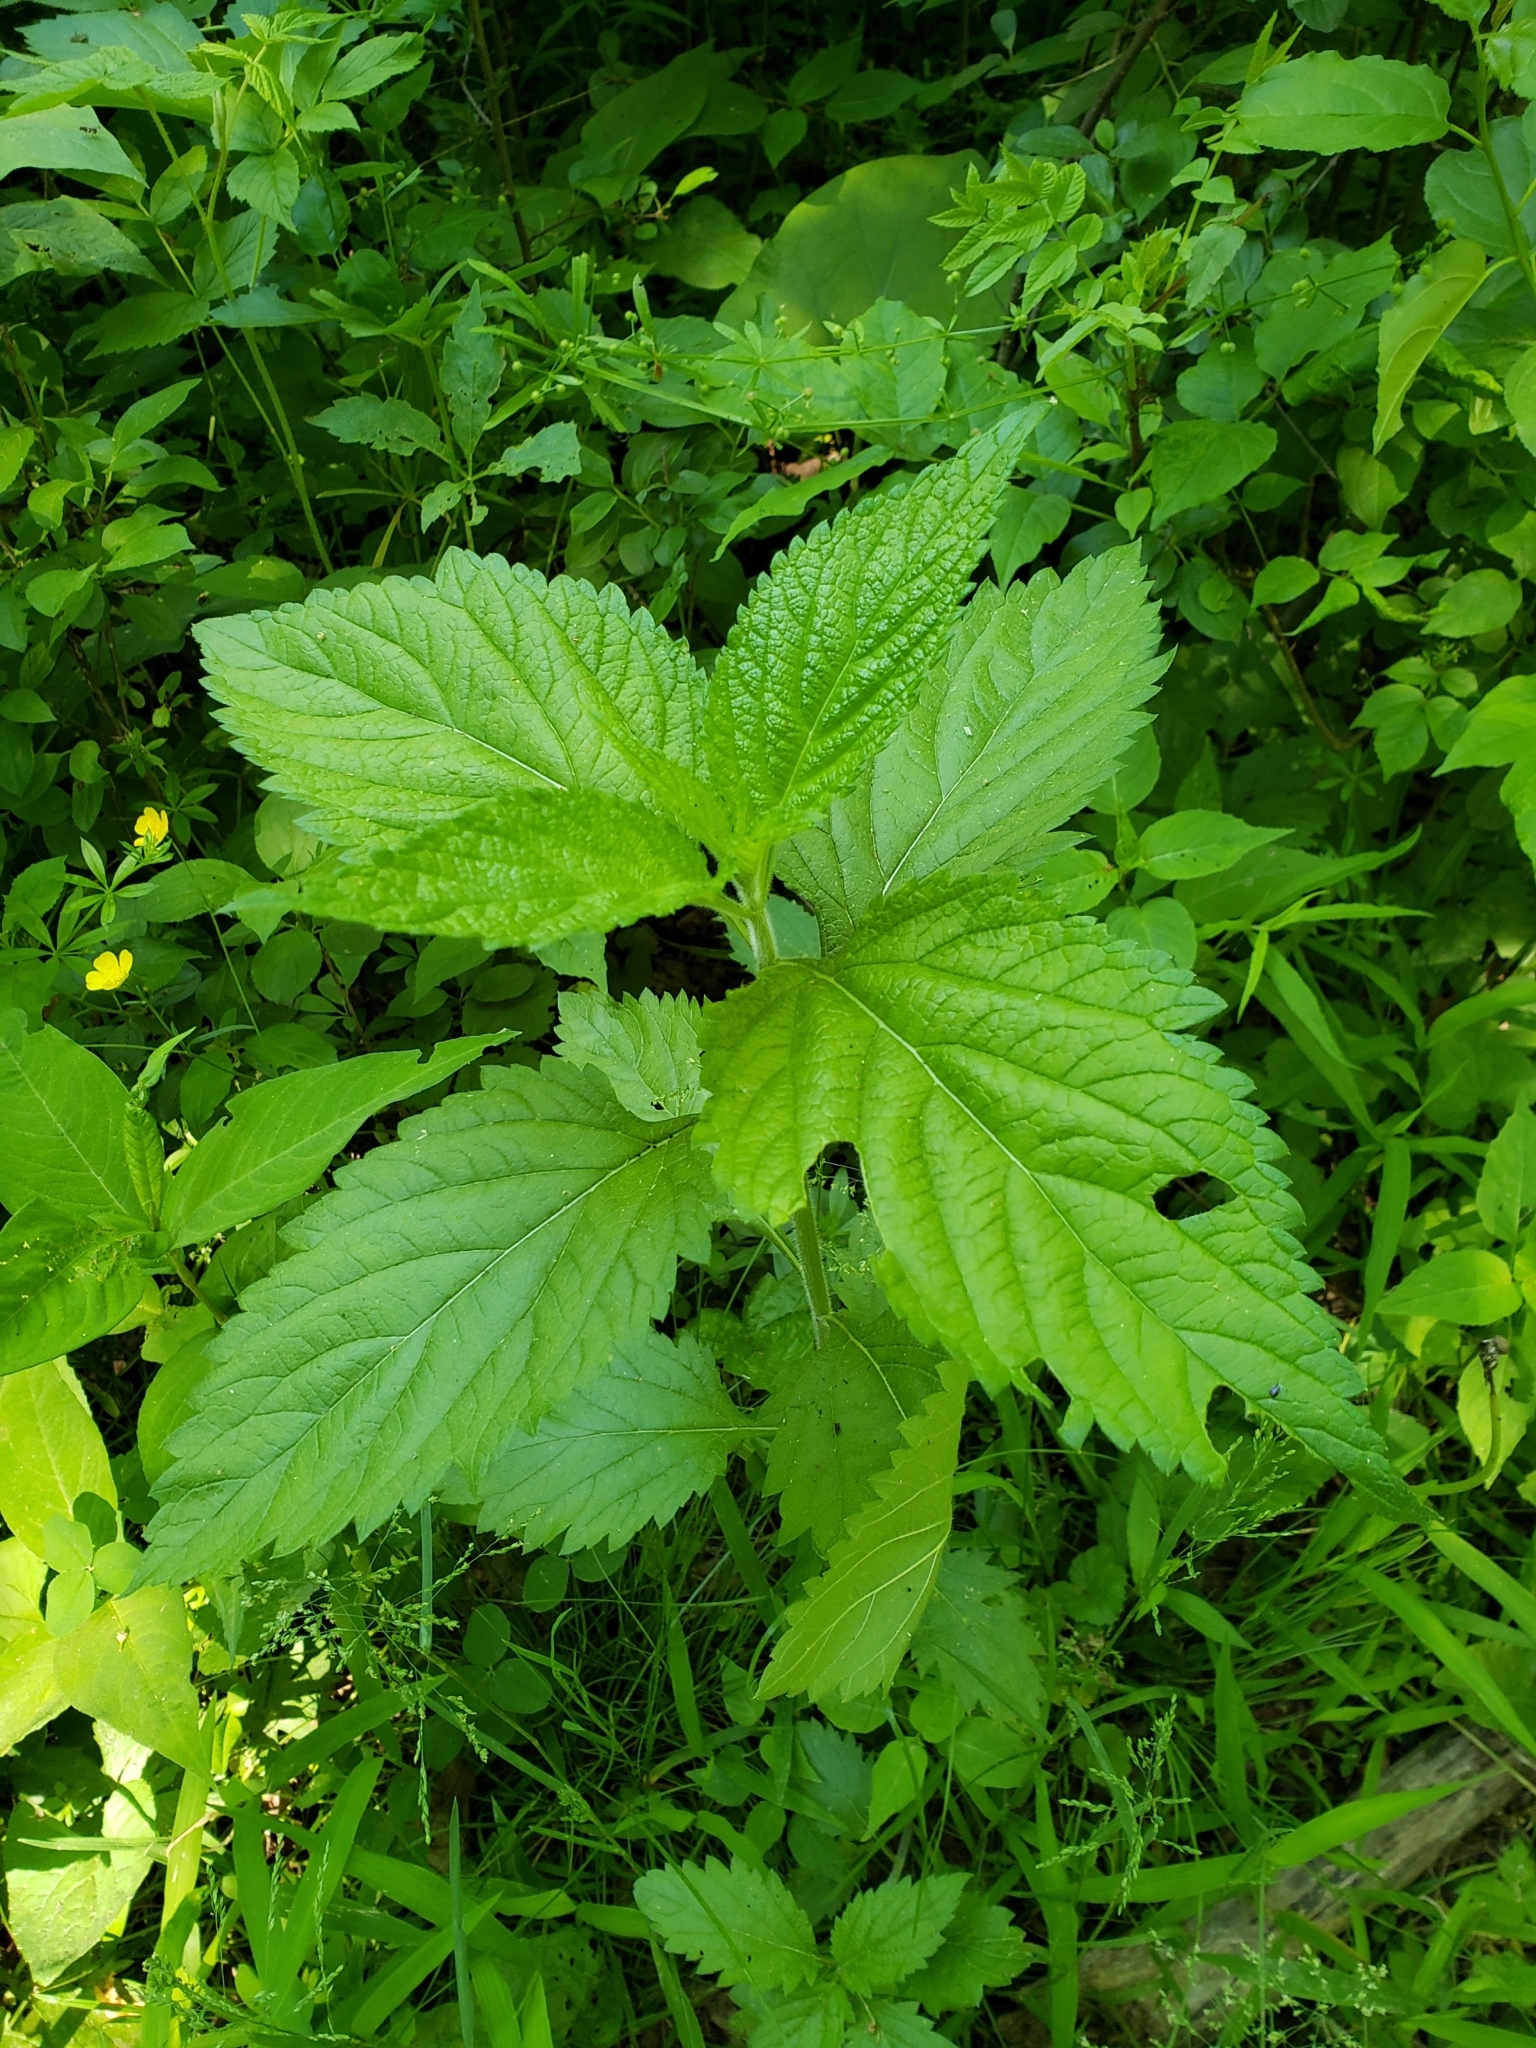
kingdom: Plantae
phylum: Tracheophyta
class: Magnoliopsida
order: Lamiales
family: Verbenaceae
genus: Verbena
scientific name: Verbena urticifolia
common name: Nettle-leaved vervain
